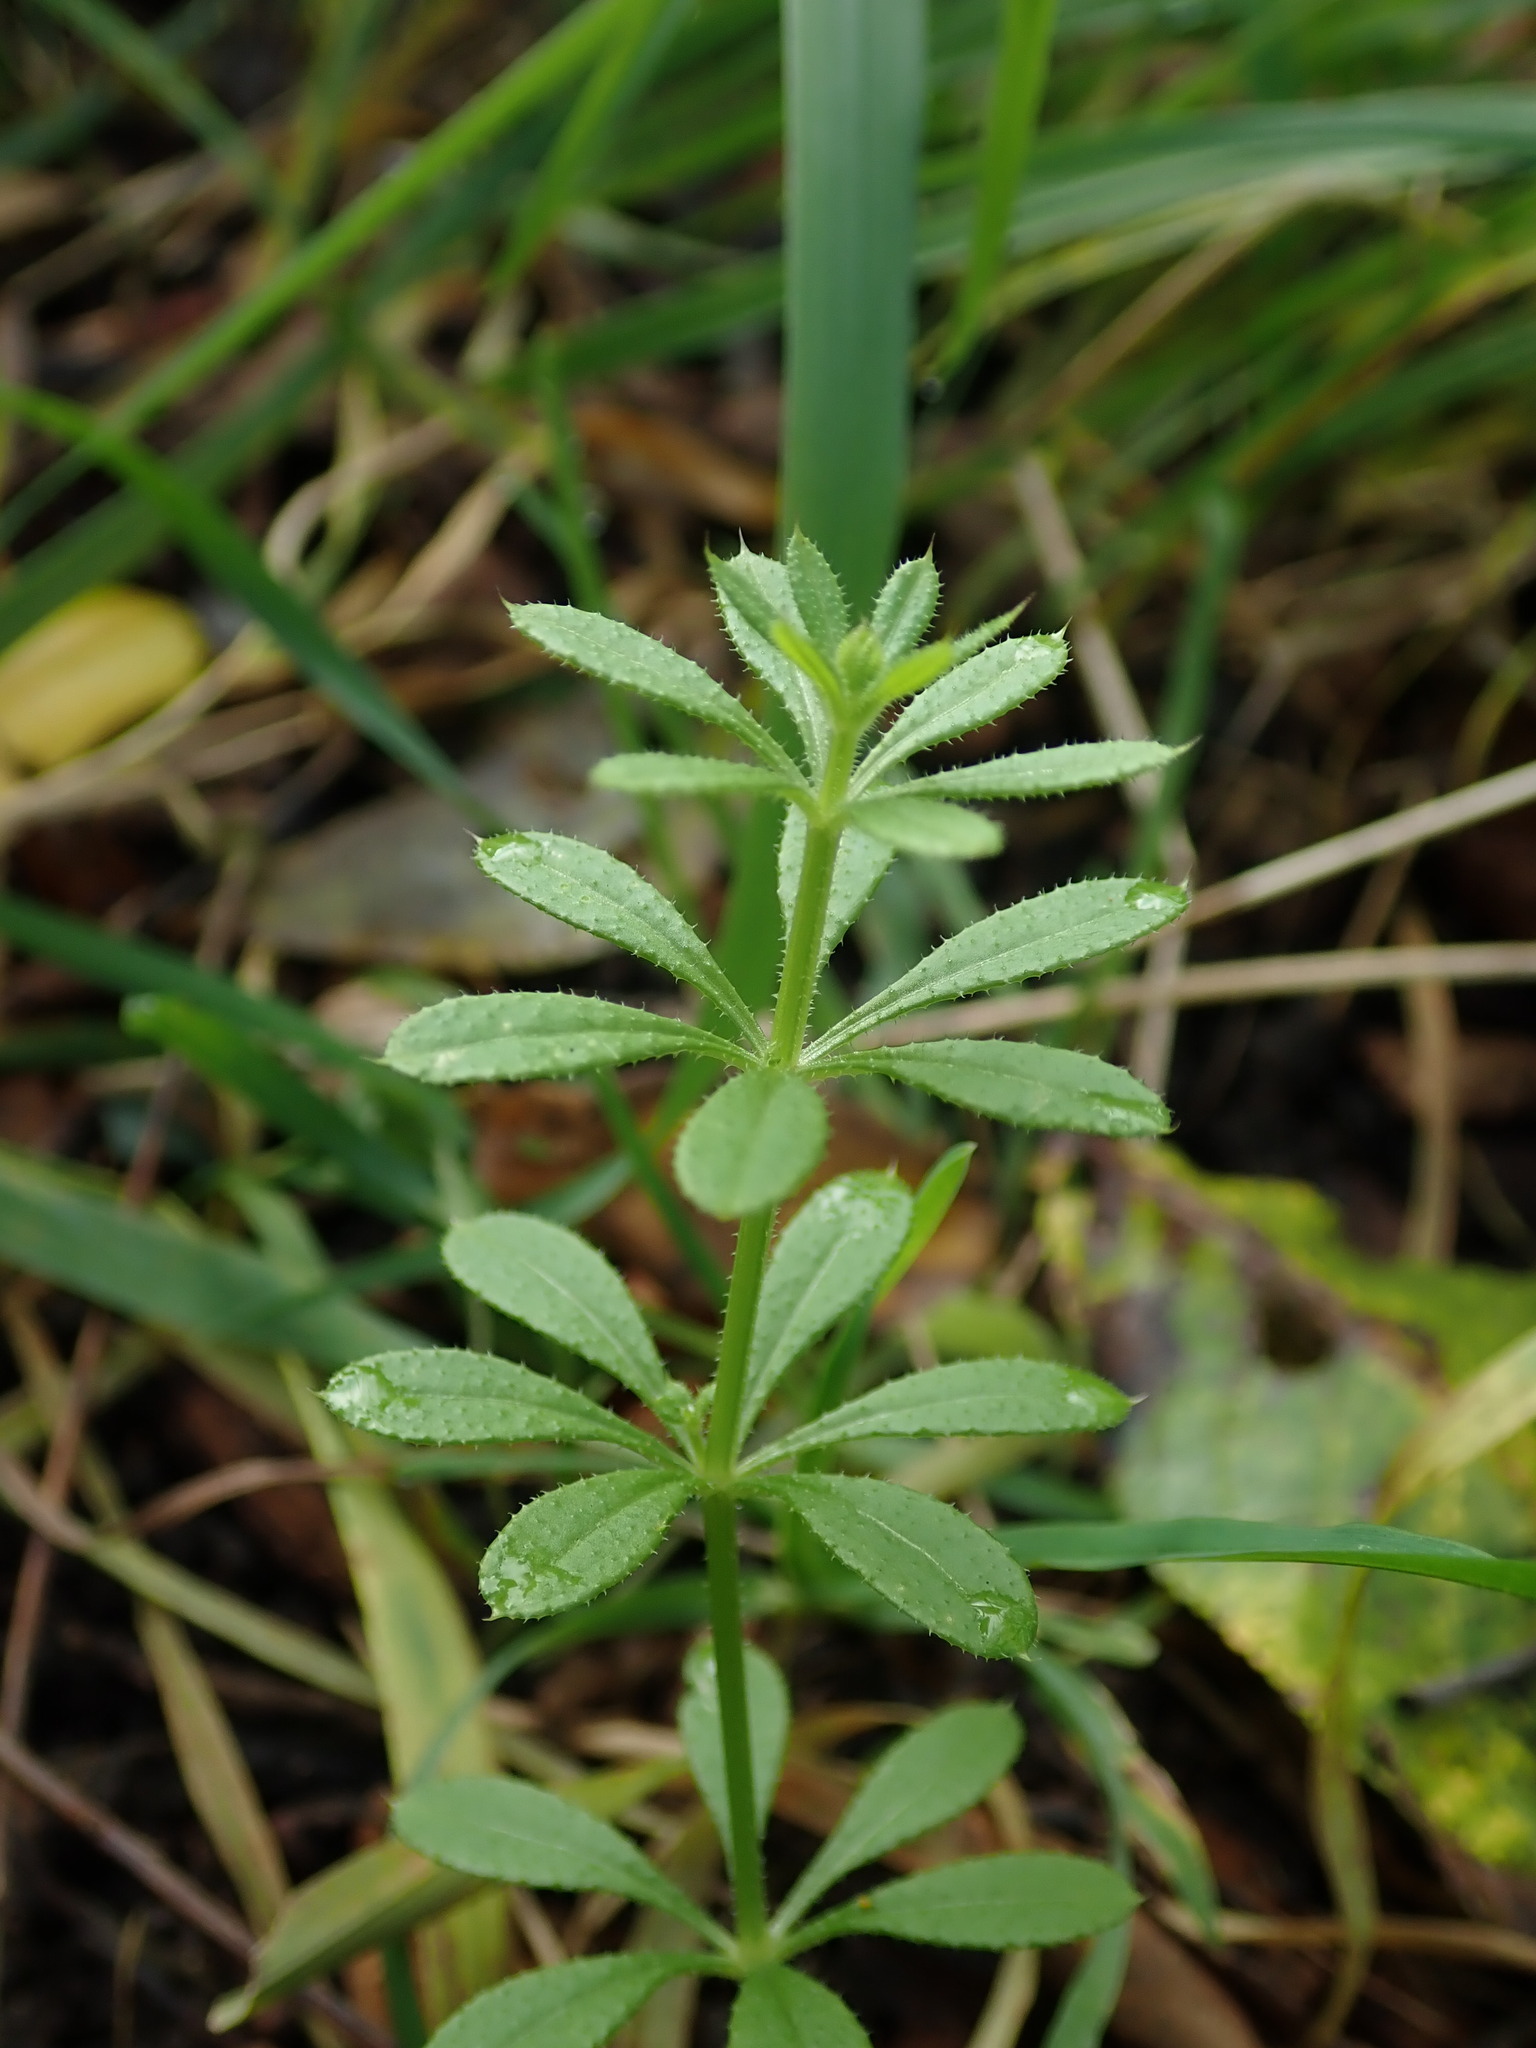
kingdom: Plantae
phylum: Tracheophyta
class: Magnoliopsida
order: Gentianales
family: Rubiaceae
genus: Galium
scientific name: Galium aparine
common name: Cleavers
